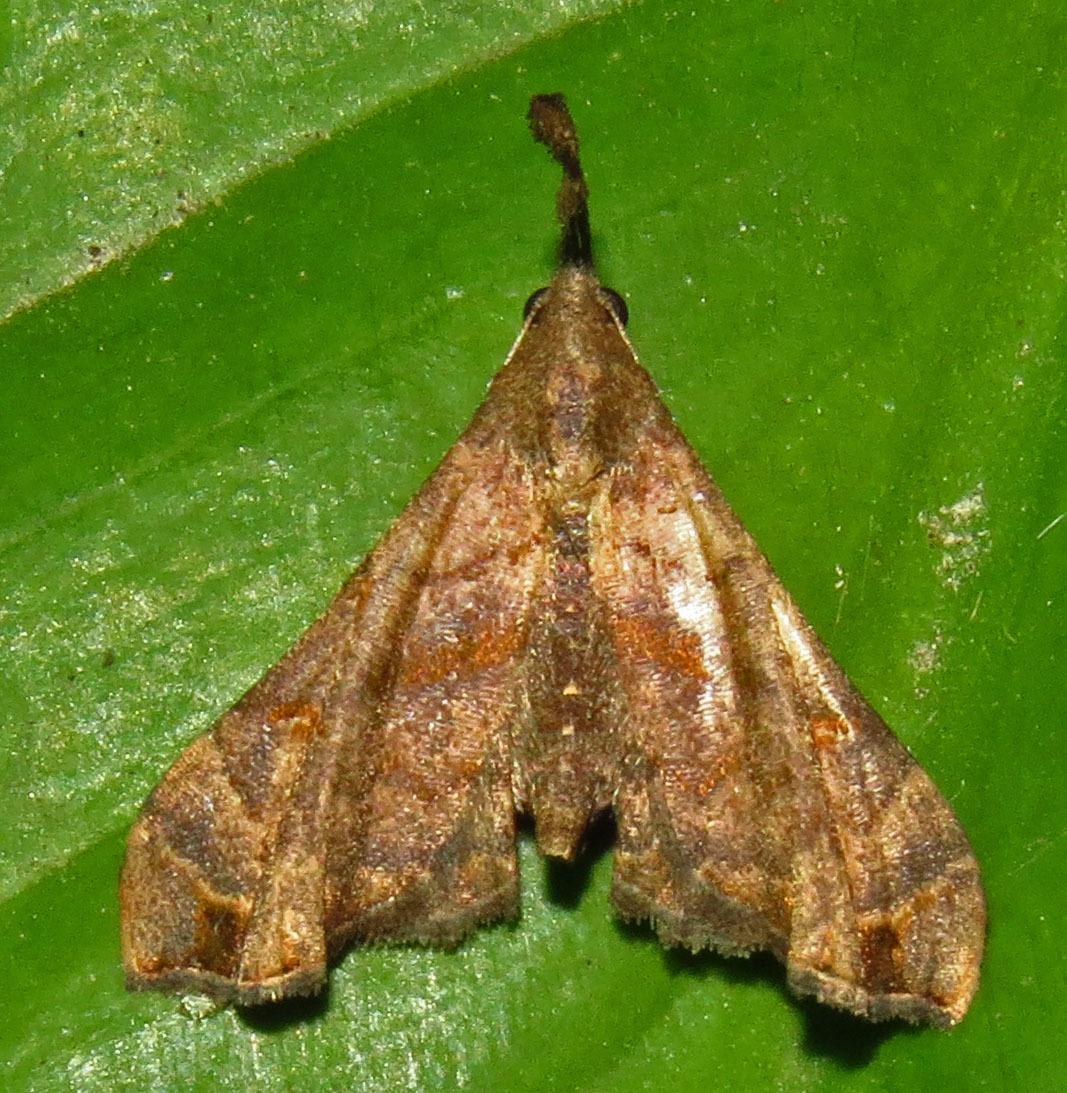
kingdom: Animalia
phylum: Arthropoda
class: Insecta
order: Lepidoptera
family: Erebidae
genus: Palthis
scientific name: Palthis asopialis
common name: Faint-spotted palthis moth
